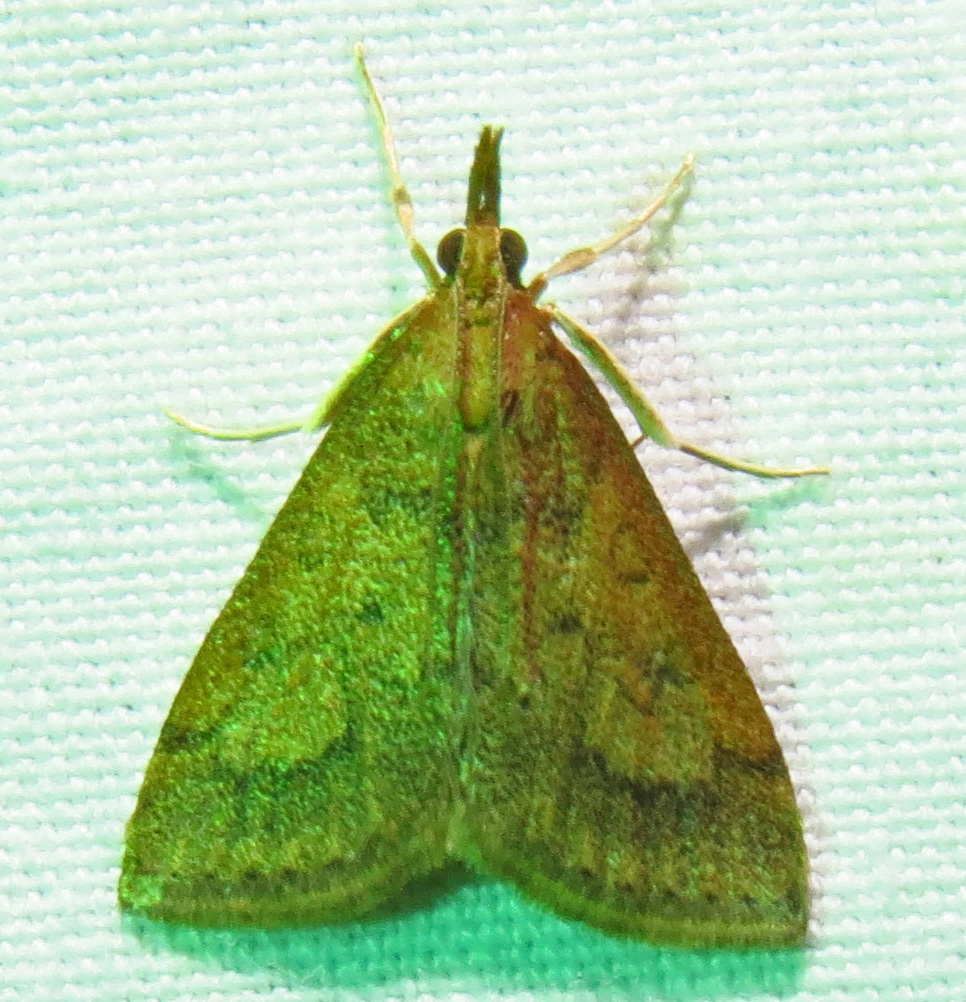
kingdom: Animalia
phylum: Arthropoda
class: Insecta
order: Lepidoptera
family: Crambidae
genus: Udea
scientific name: Udea rubigalis
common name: Celery leaftier moth
